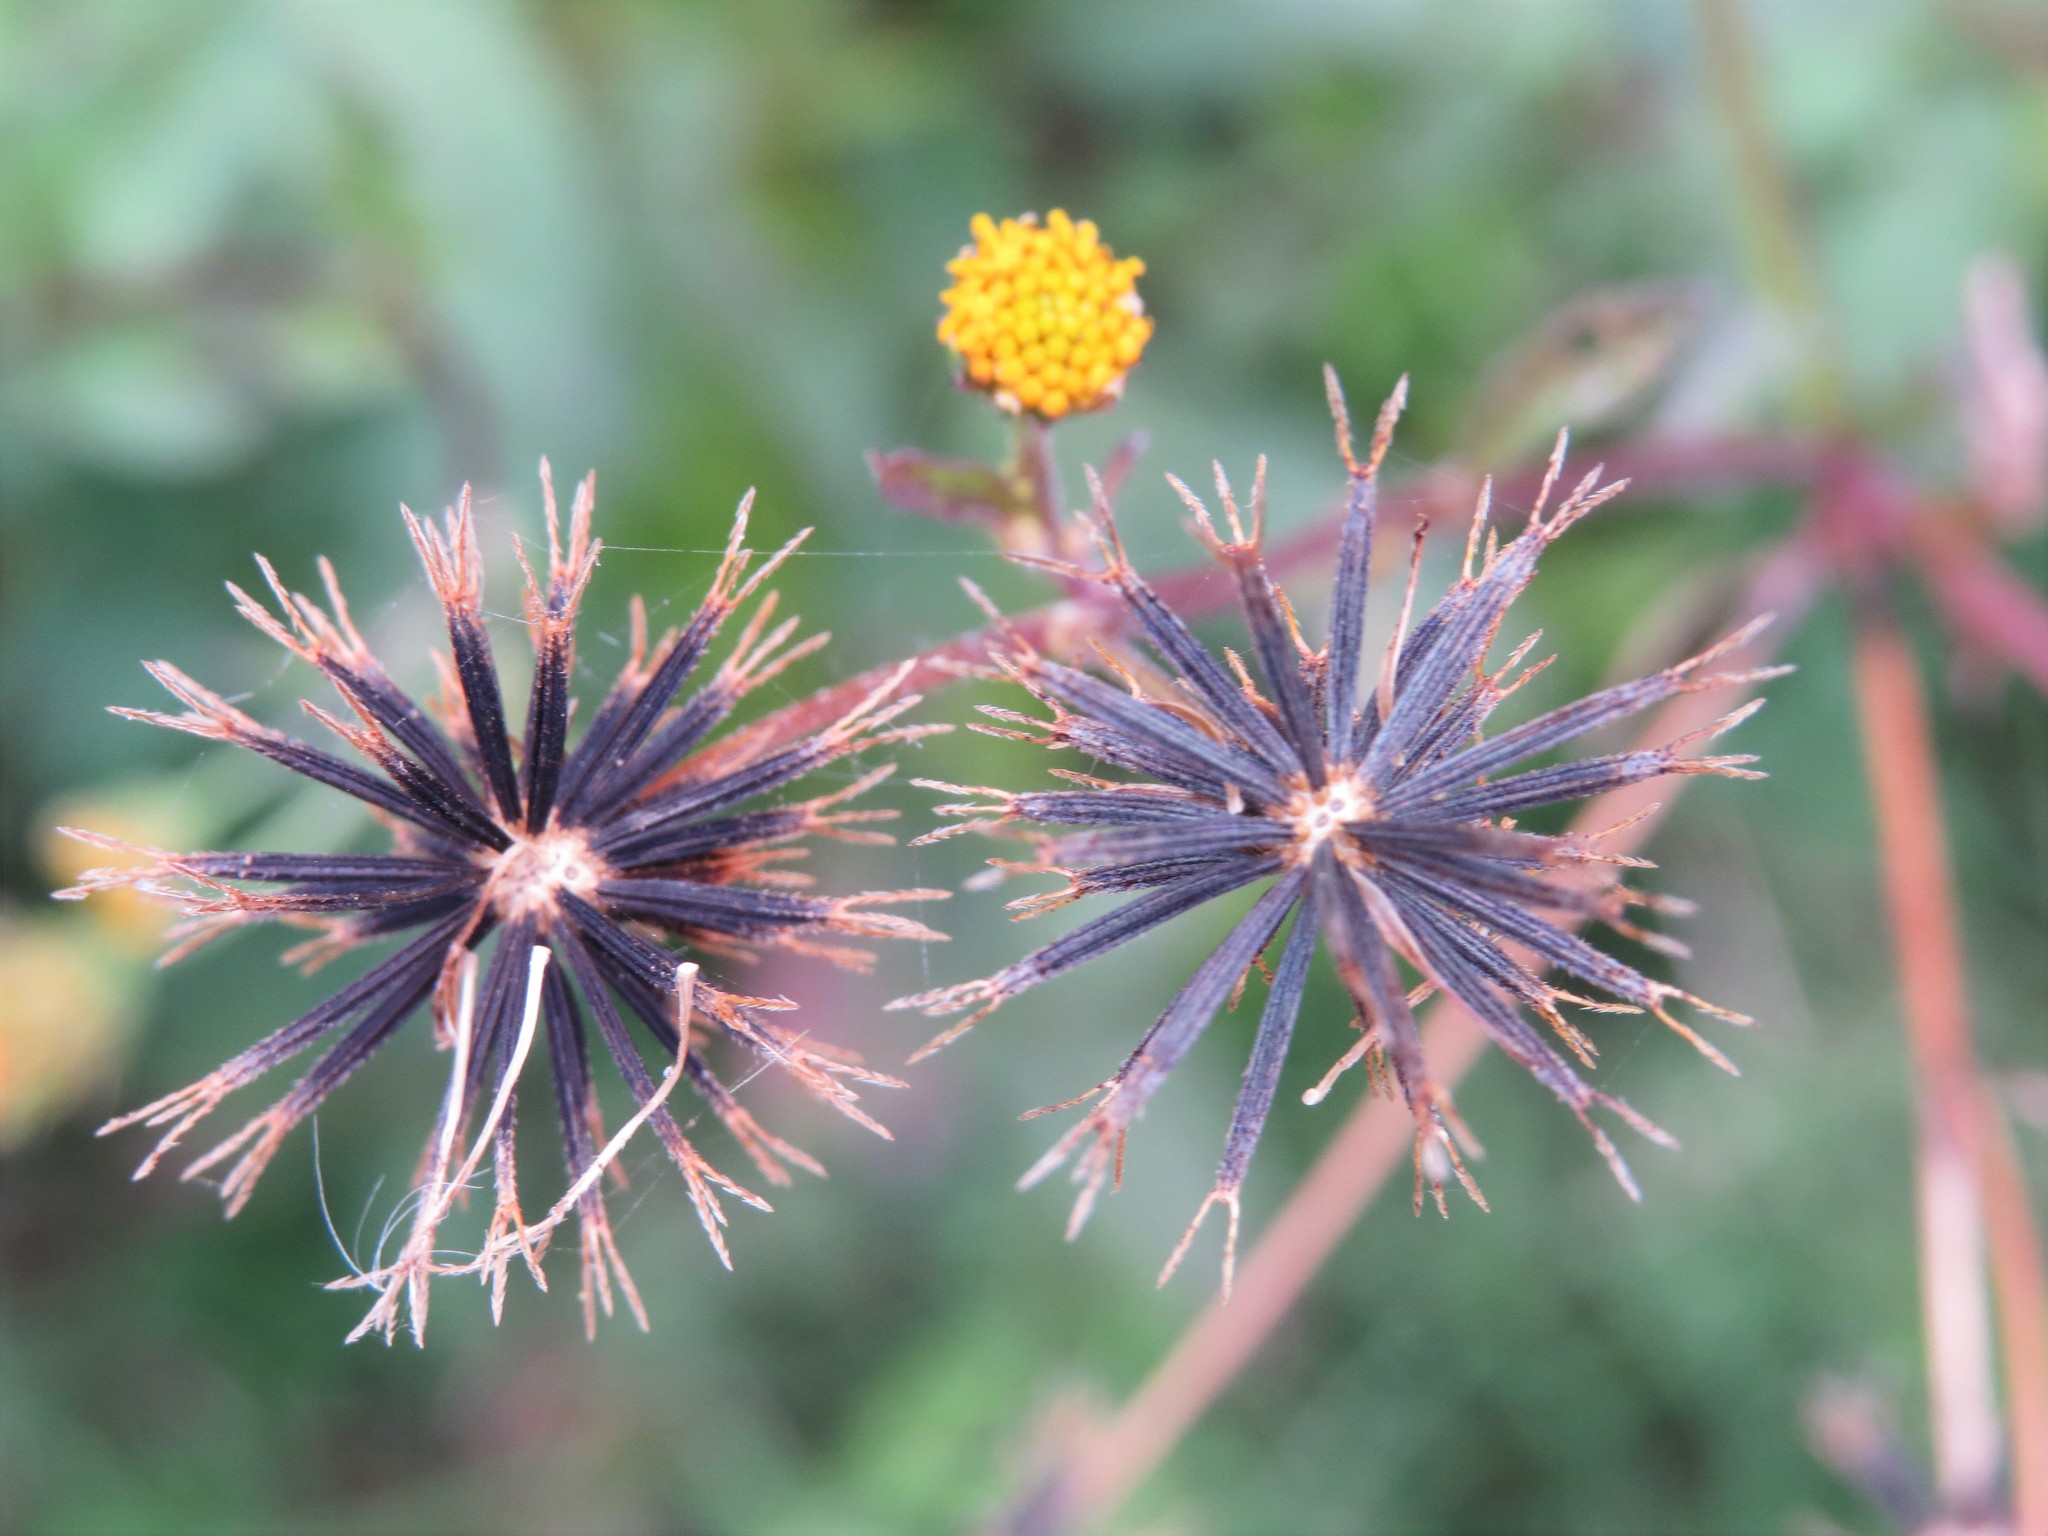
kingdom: Plantae
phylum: Tracheophyta
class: Magnoliopsida
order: Asterales
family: Asteraceae
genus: Bidens
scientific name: Bidens pilosa
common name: Black-jack
